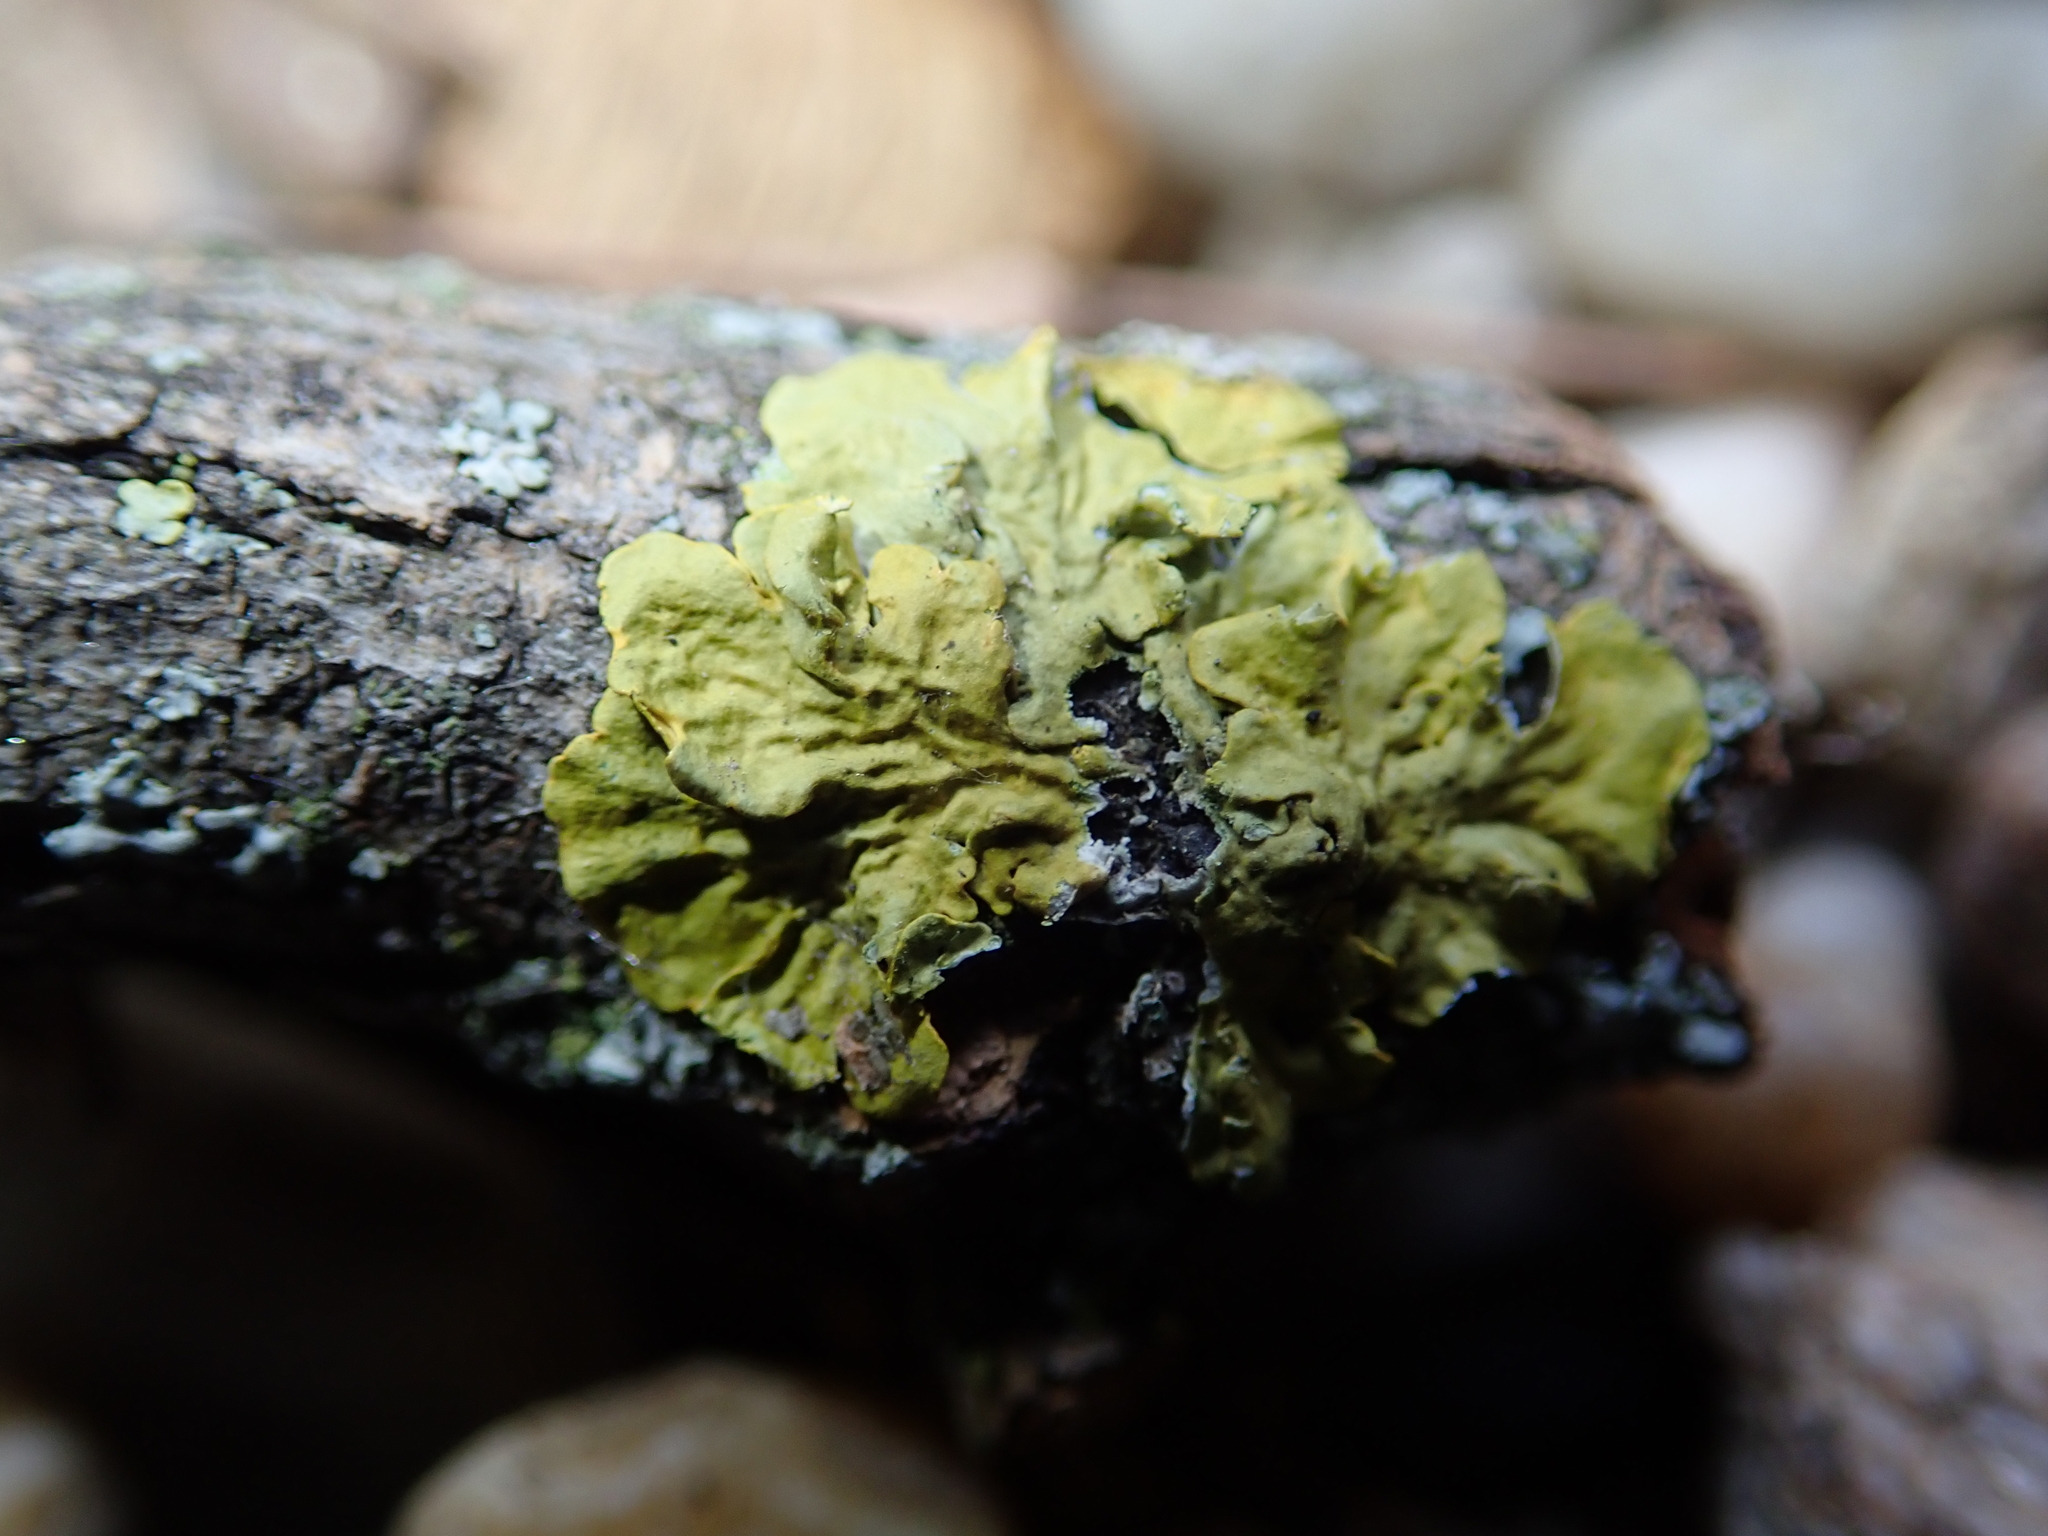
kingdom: Fungi
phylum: Ascomycota
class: Lecanoromycetes
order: Teloschistales
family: Teloschistaceae
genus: Xanthoria
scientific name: Xanthoria parietina
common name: Common orange lichen
